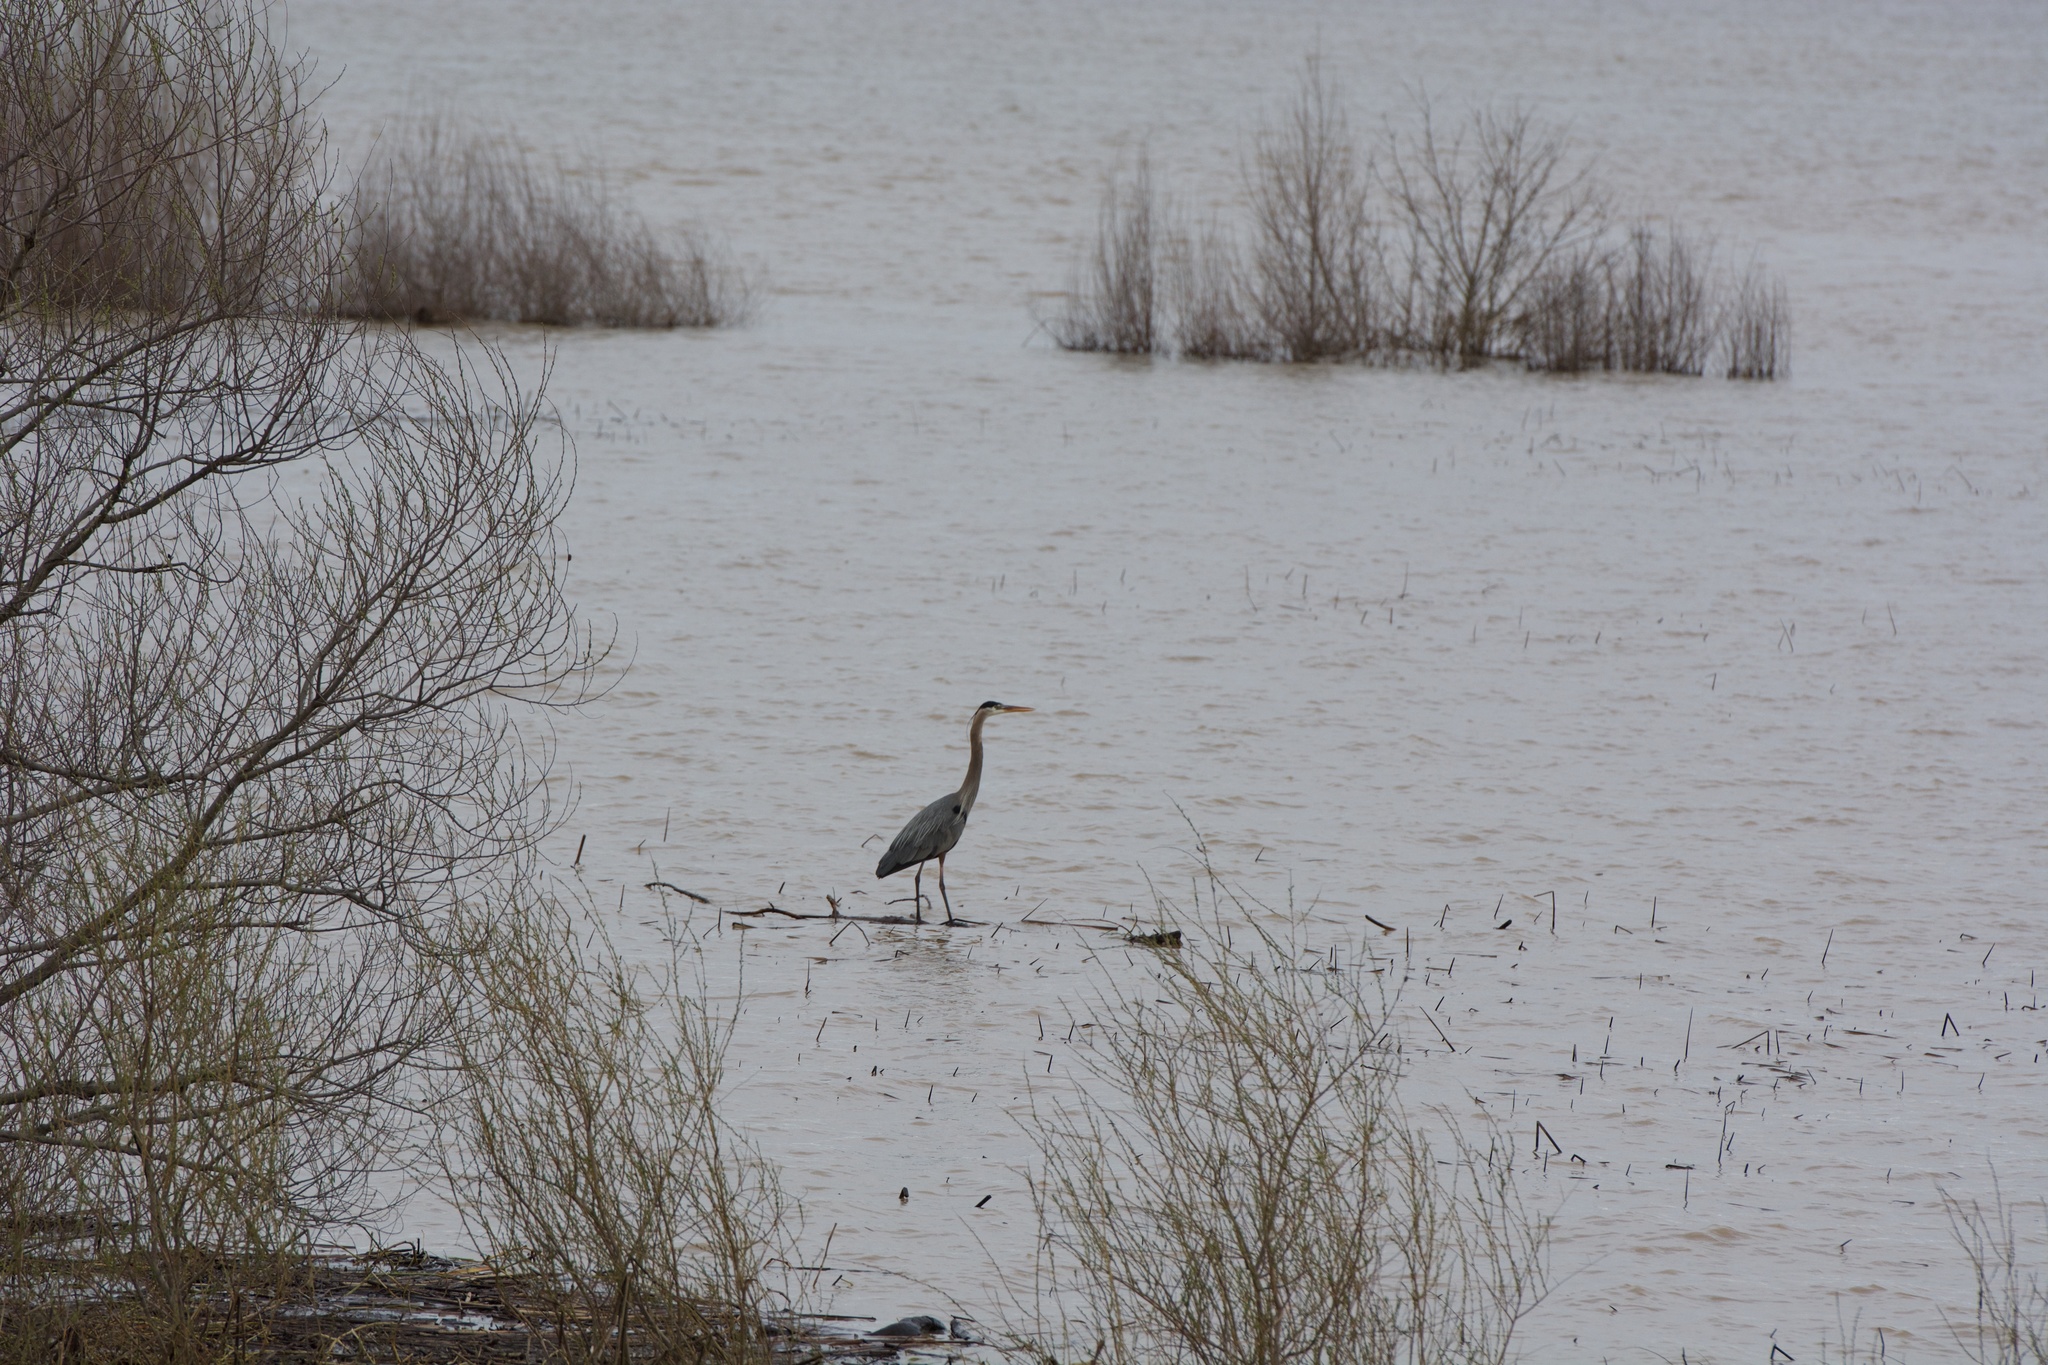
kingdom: Animalia
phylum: Chordata
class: Aves
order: Pelecaniformes
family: Ardeidae
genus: Ardea
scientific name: Ardea herodias
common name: Great blue heron
